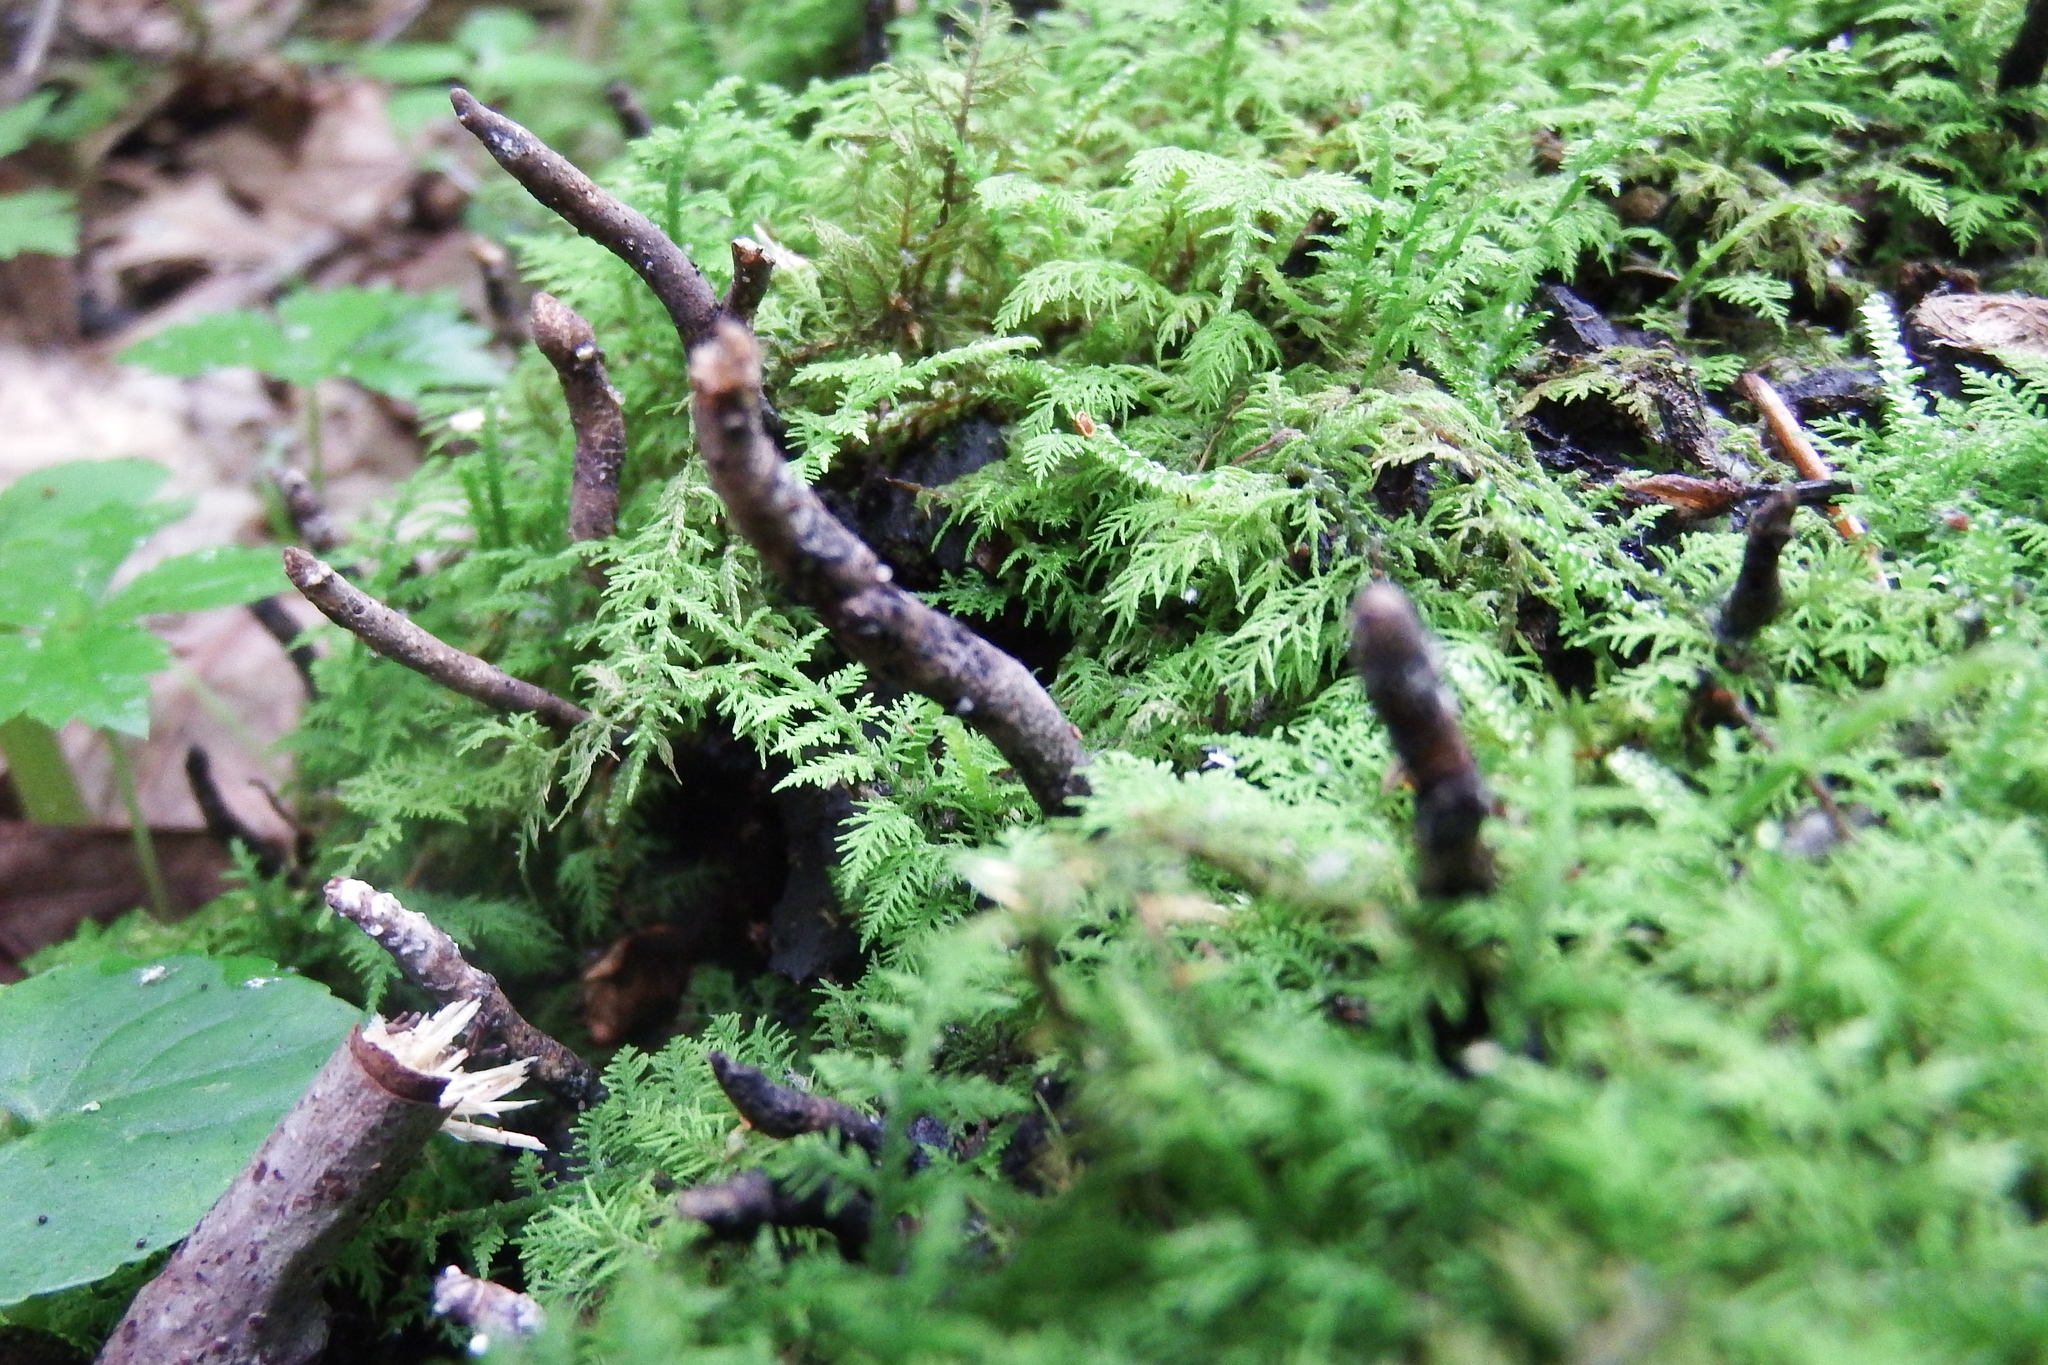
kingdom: Fungi
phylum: Ascomycota
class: Sordariomycetes
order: Xylariales
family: Xylariaceae
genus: Xylaria
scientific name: Xylaria polymorpha
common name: Dead man's fingers
